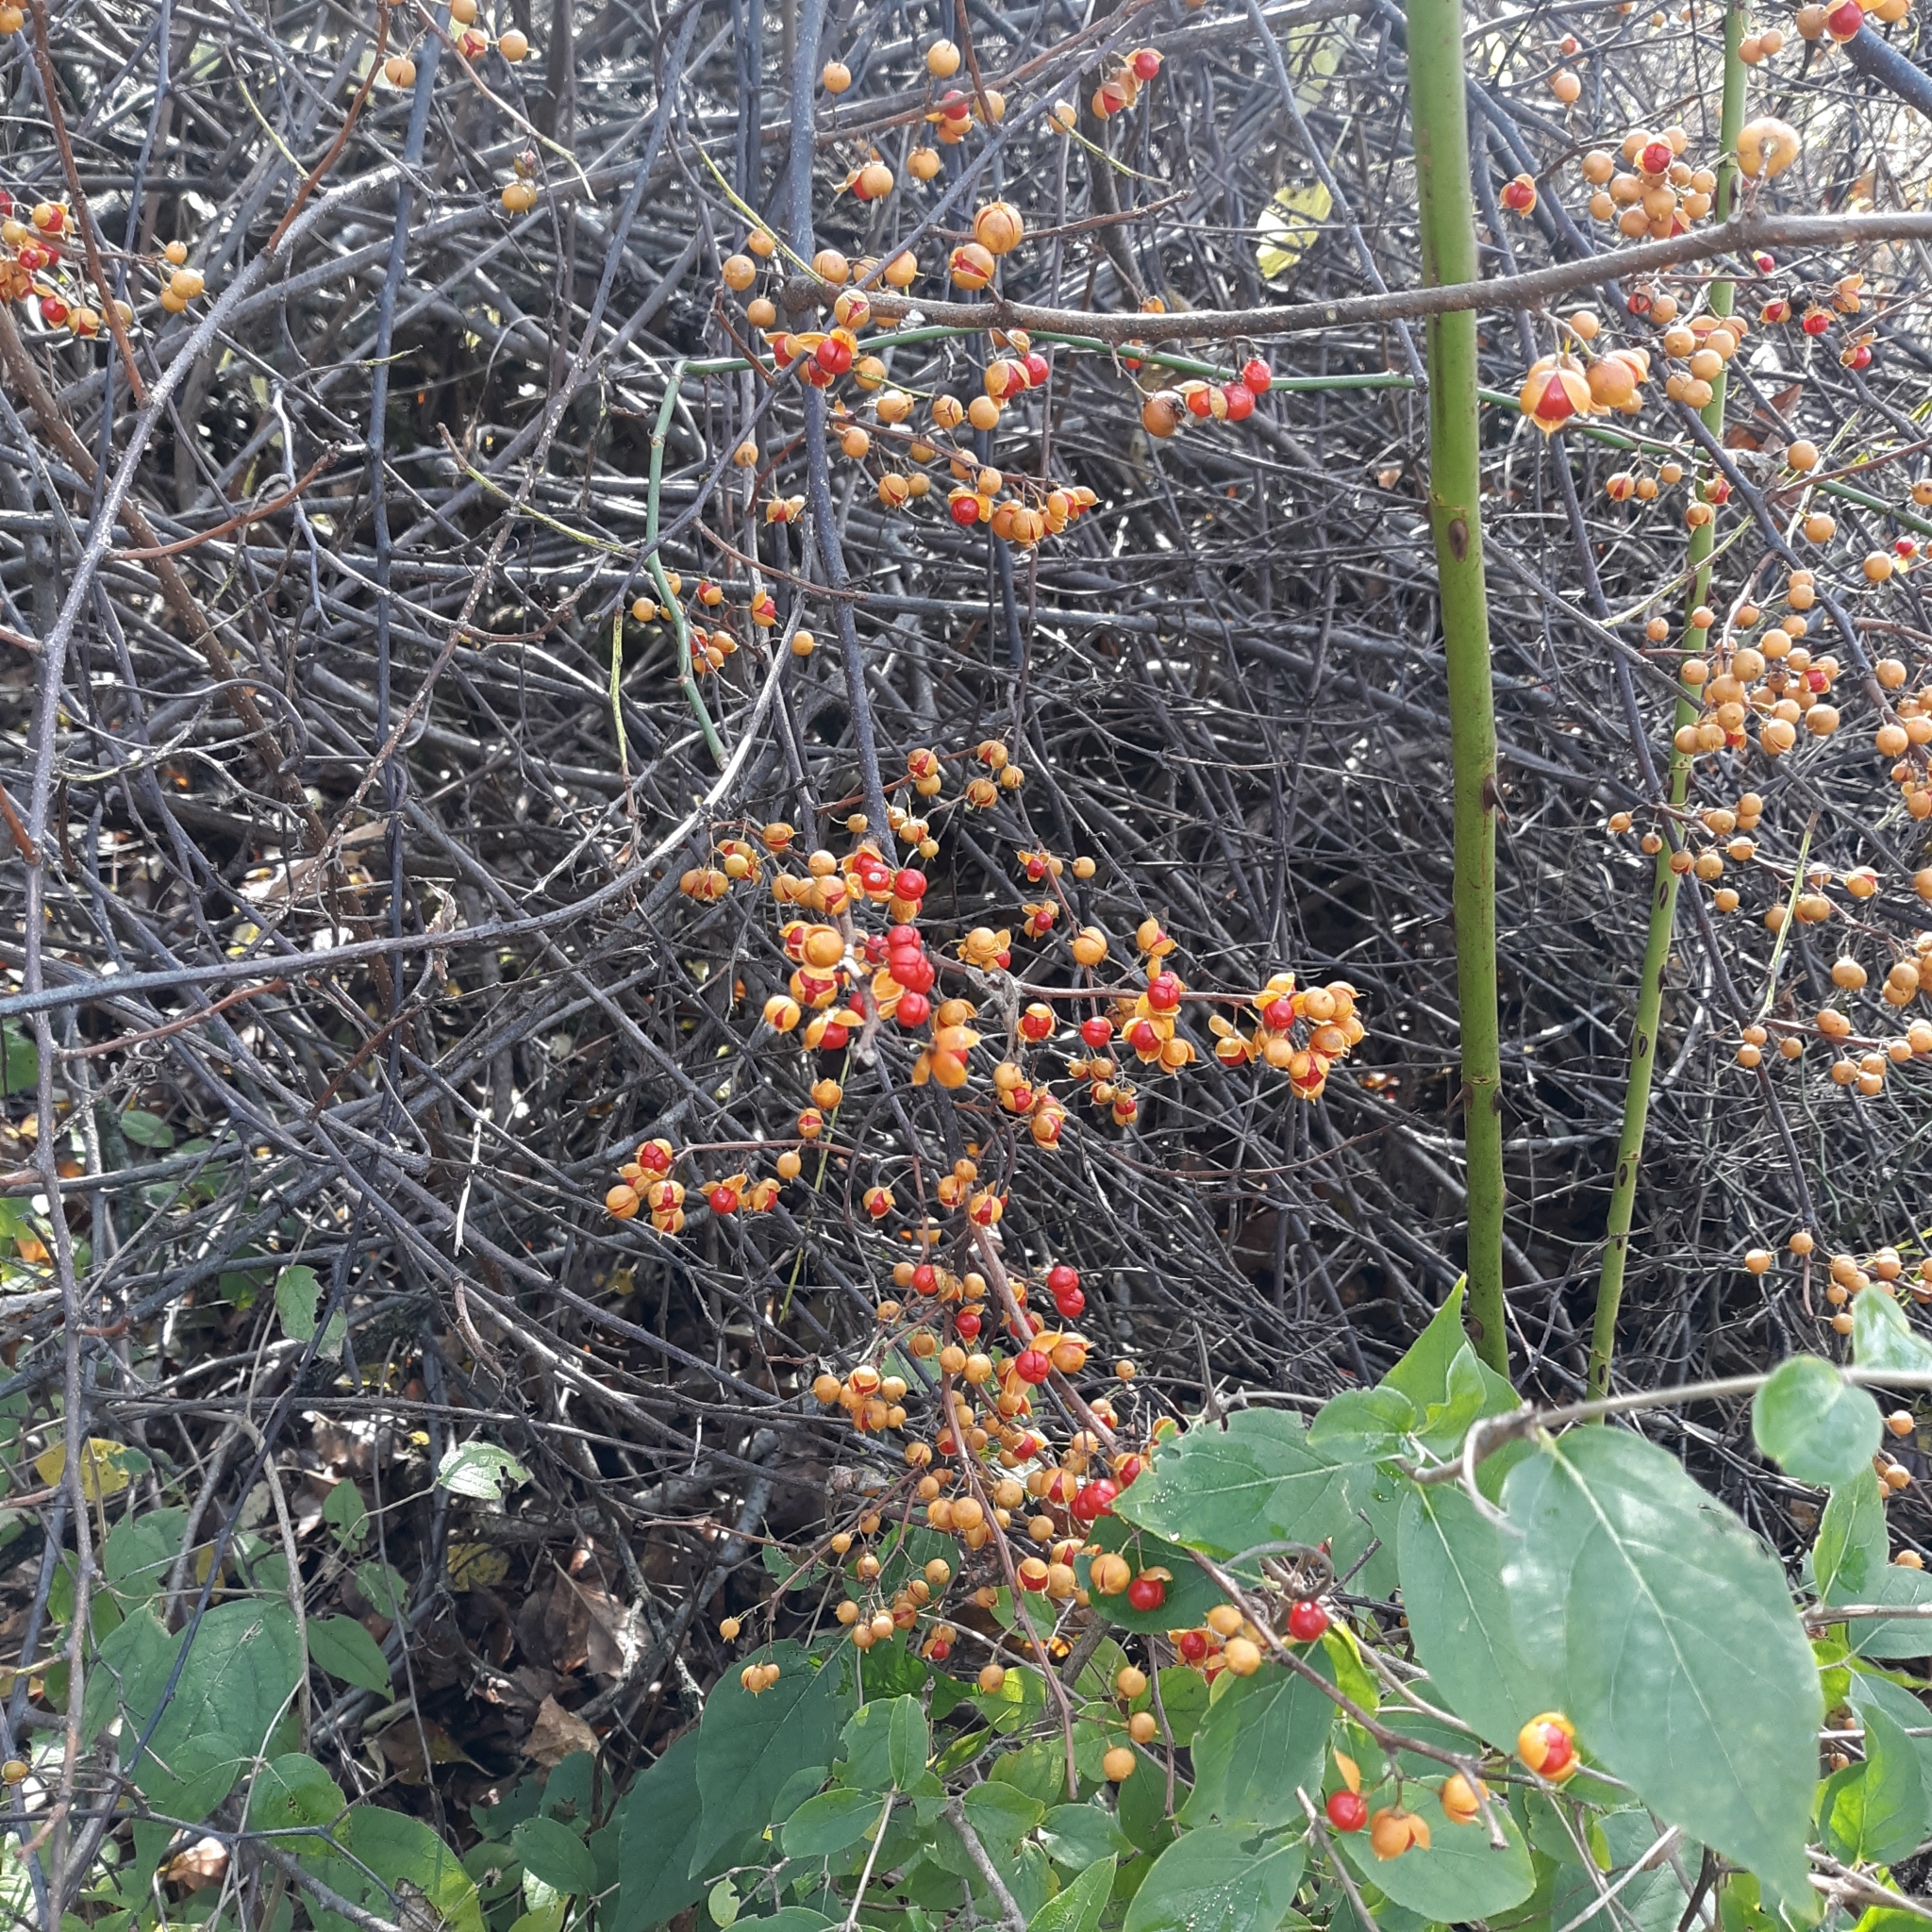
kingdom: Plantae
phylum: Tracheophyta
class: Magnoliopsida
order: Celastrales
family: Celastraceae
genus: Celastrus
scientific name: Celastrus orbiculatus
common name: Oriental bittersweet
